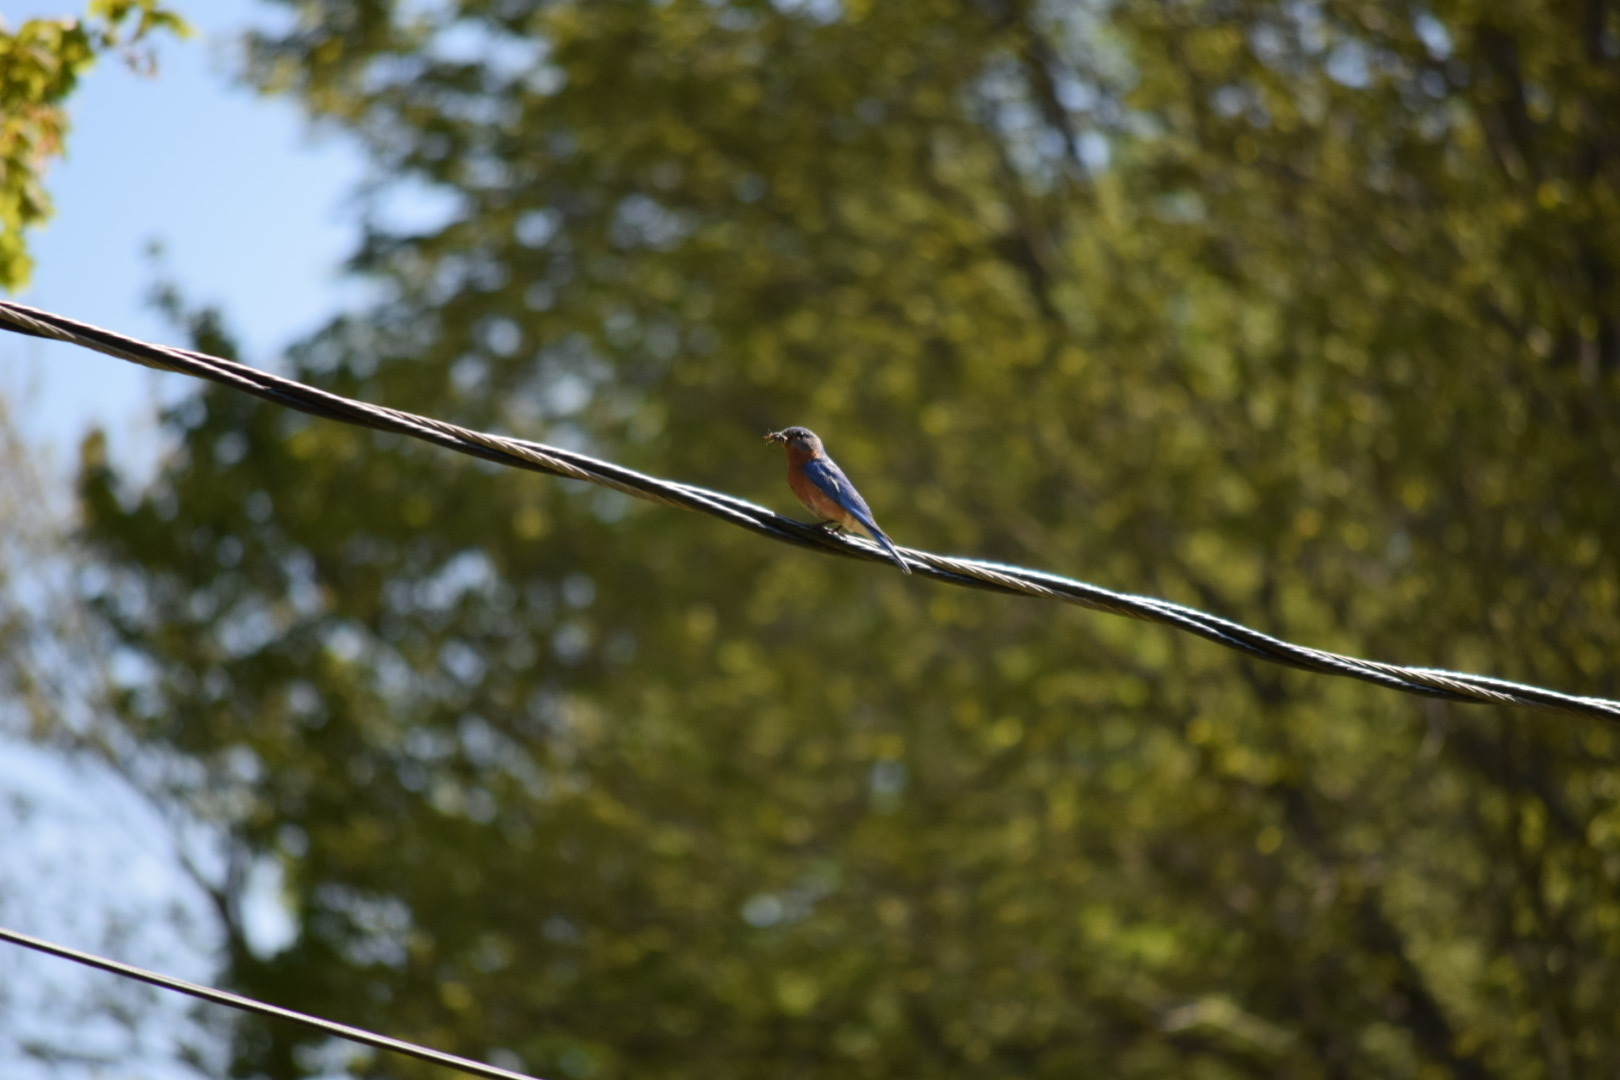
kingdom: Animalia
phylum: Chordata
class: Aves
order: Passeriformes
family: Turdidae
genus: Sialia
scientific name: Sialia sialis
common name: Eastern bluebird
